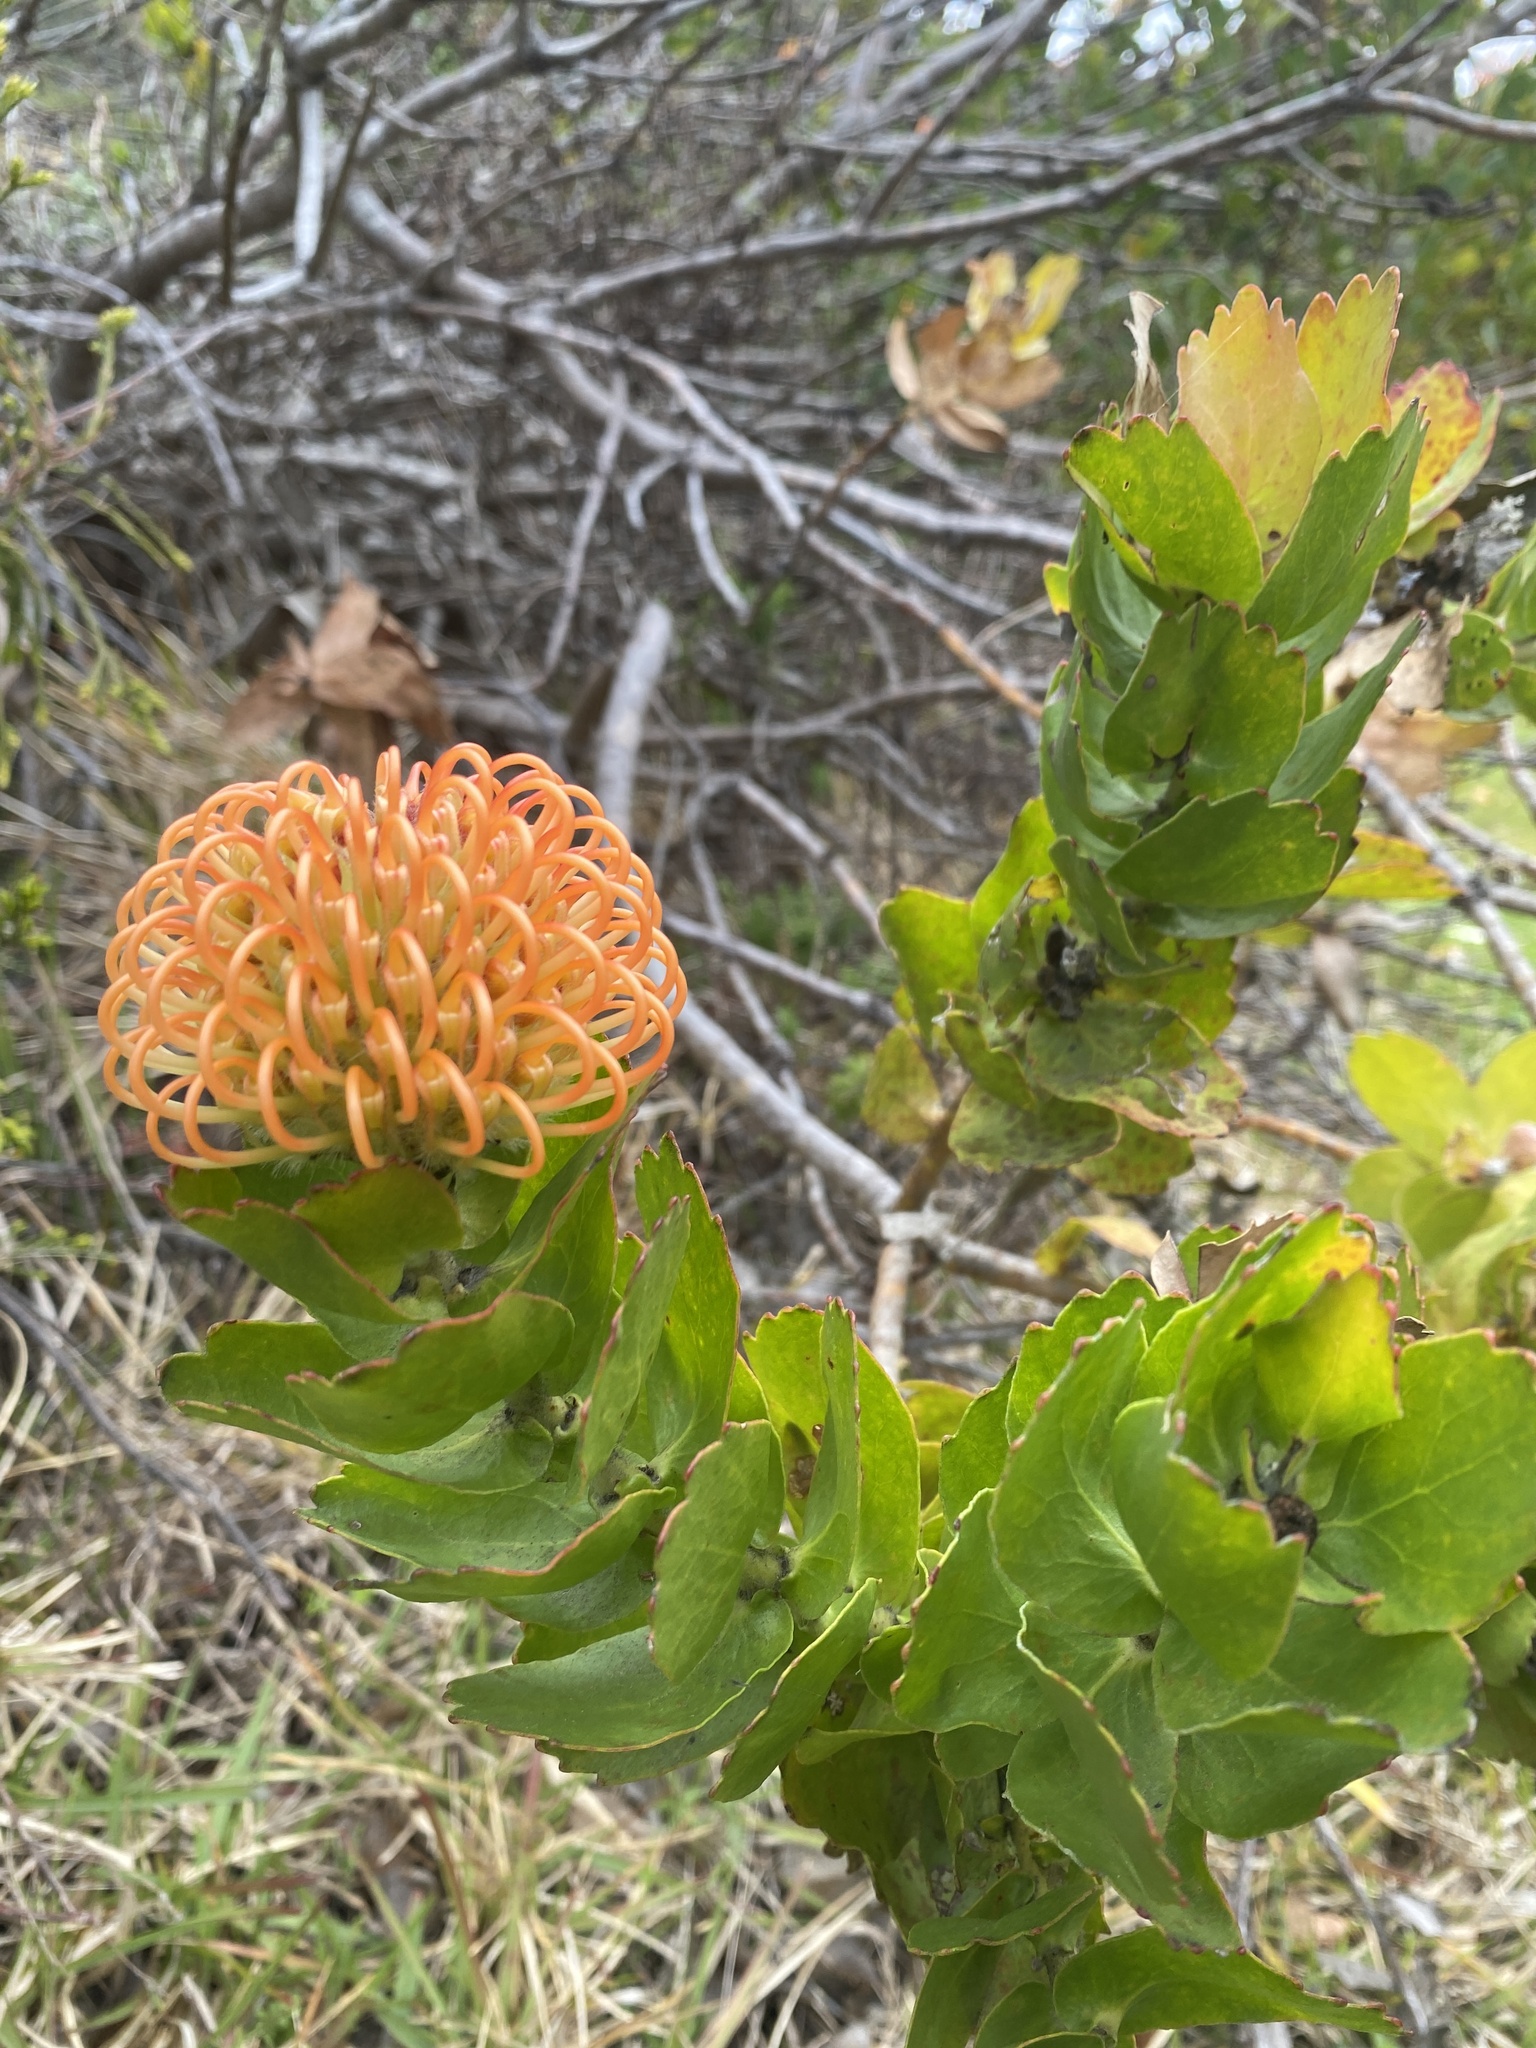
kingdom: Plantae
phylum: Tracheophyta
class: Magnoliopsida
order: Proteales
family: Proteaceae
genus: Leucospermum
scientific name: Leucospermum patersonii
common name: False tree pincushion
